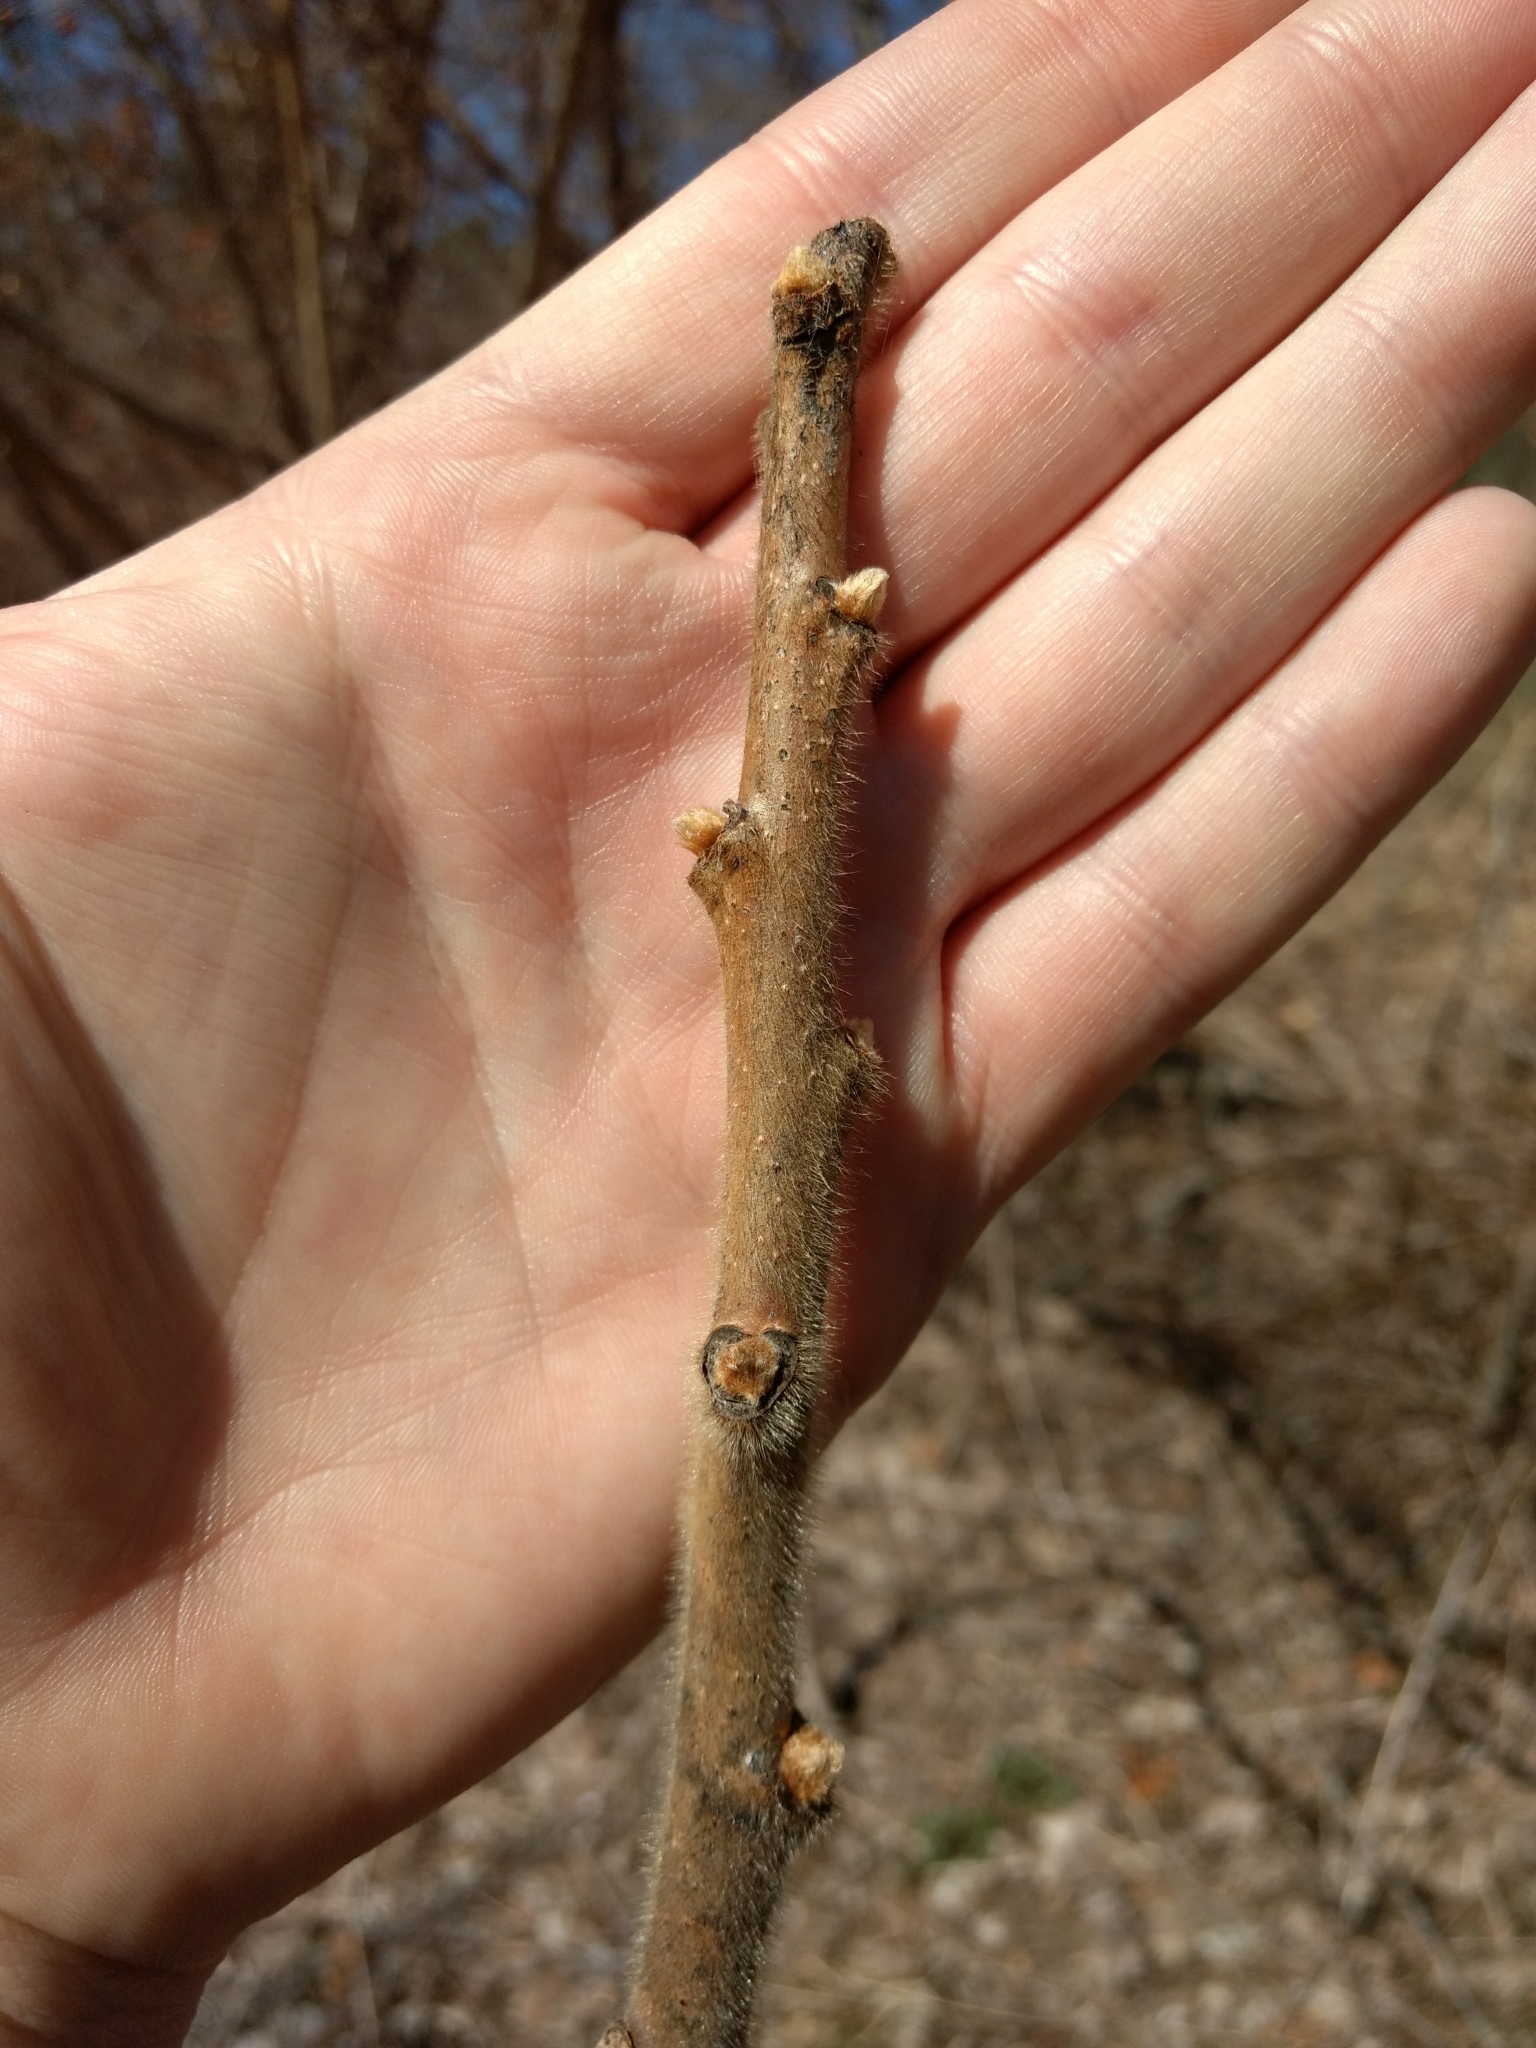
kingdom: Plantae
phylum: Tracheophyta
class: Magnoliopsida
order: Sapindales
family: Anacardiaceae
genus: Rhus
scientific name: Rhus typhina
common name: Staghorn sumac
